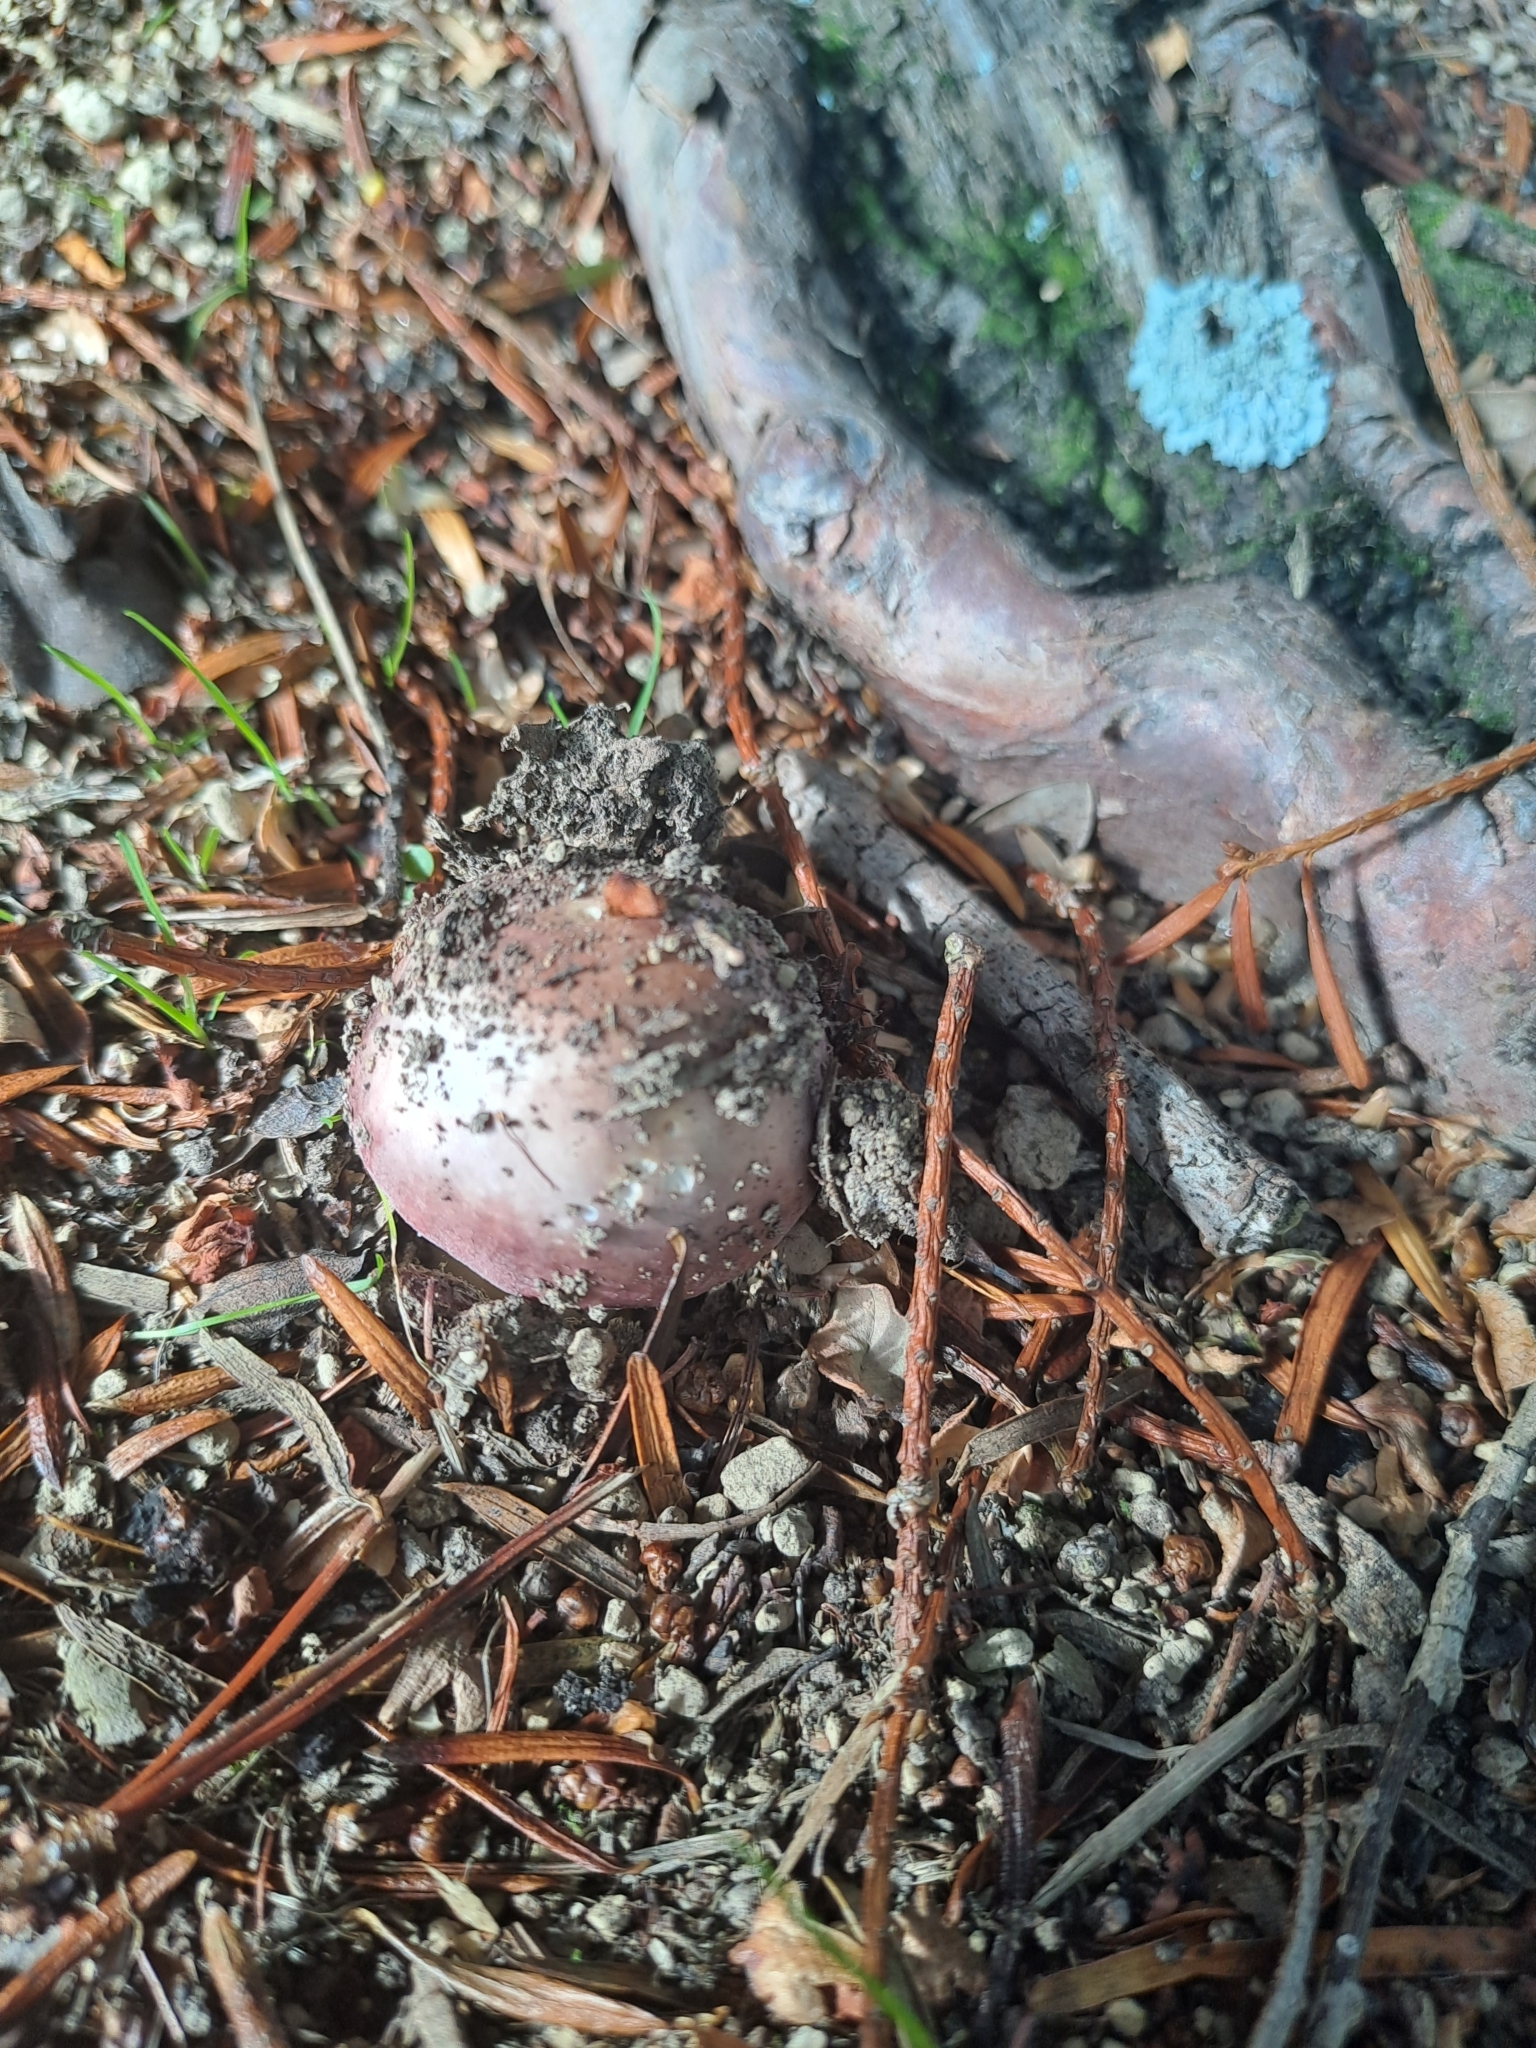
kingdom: Fungi
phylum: Basidiomycota
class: Agaricomycetes
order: Russulales
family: Russulaceae
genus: Lactarius
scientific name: Lactarius turpis
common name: Ugly milk-cap
